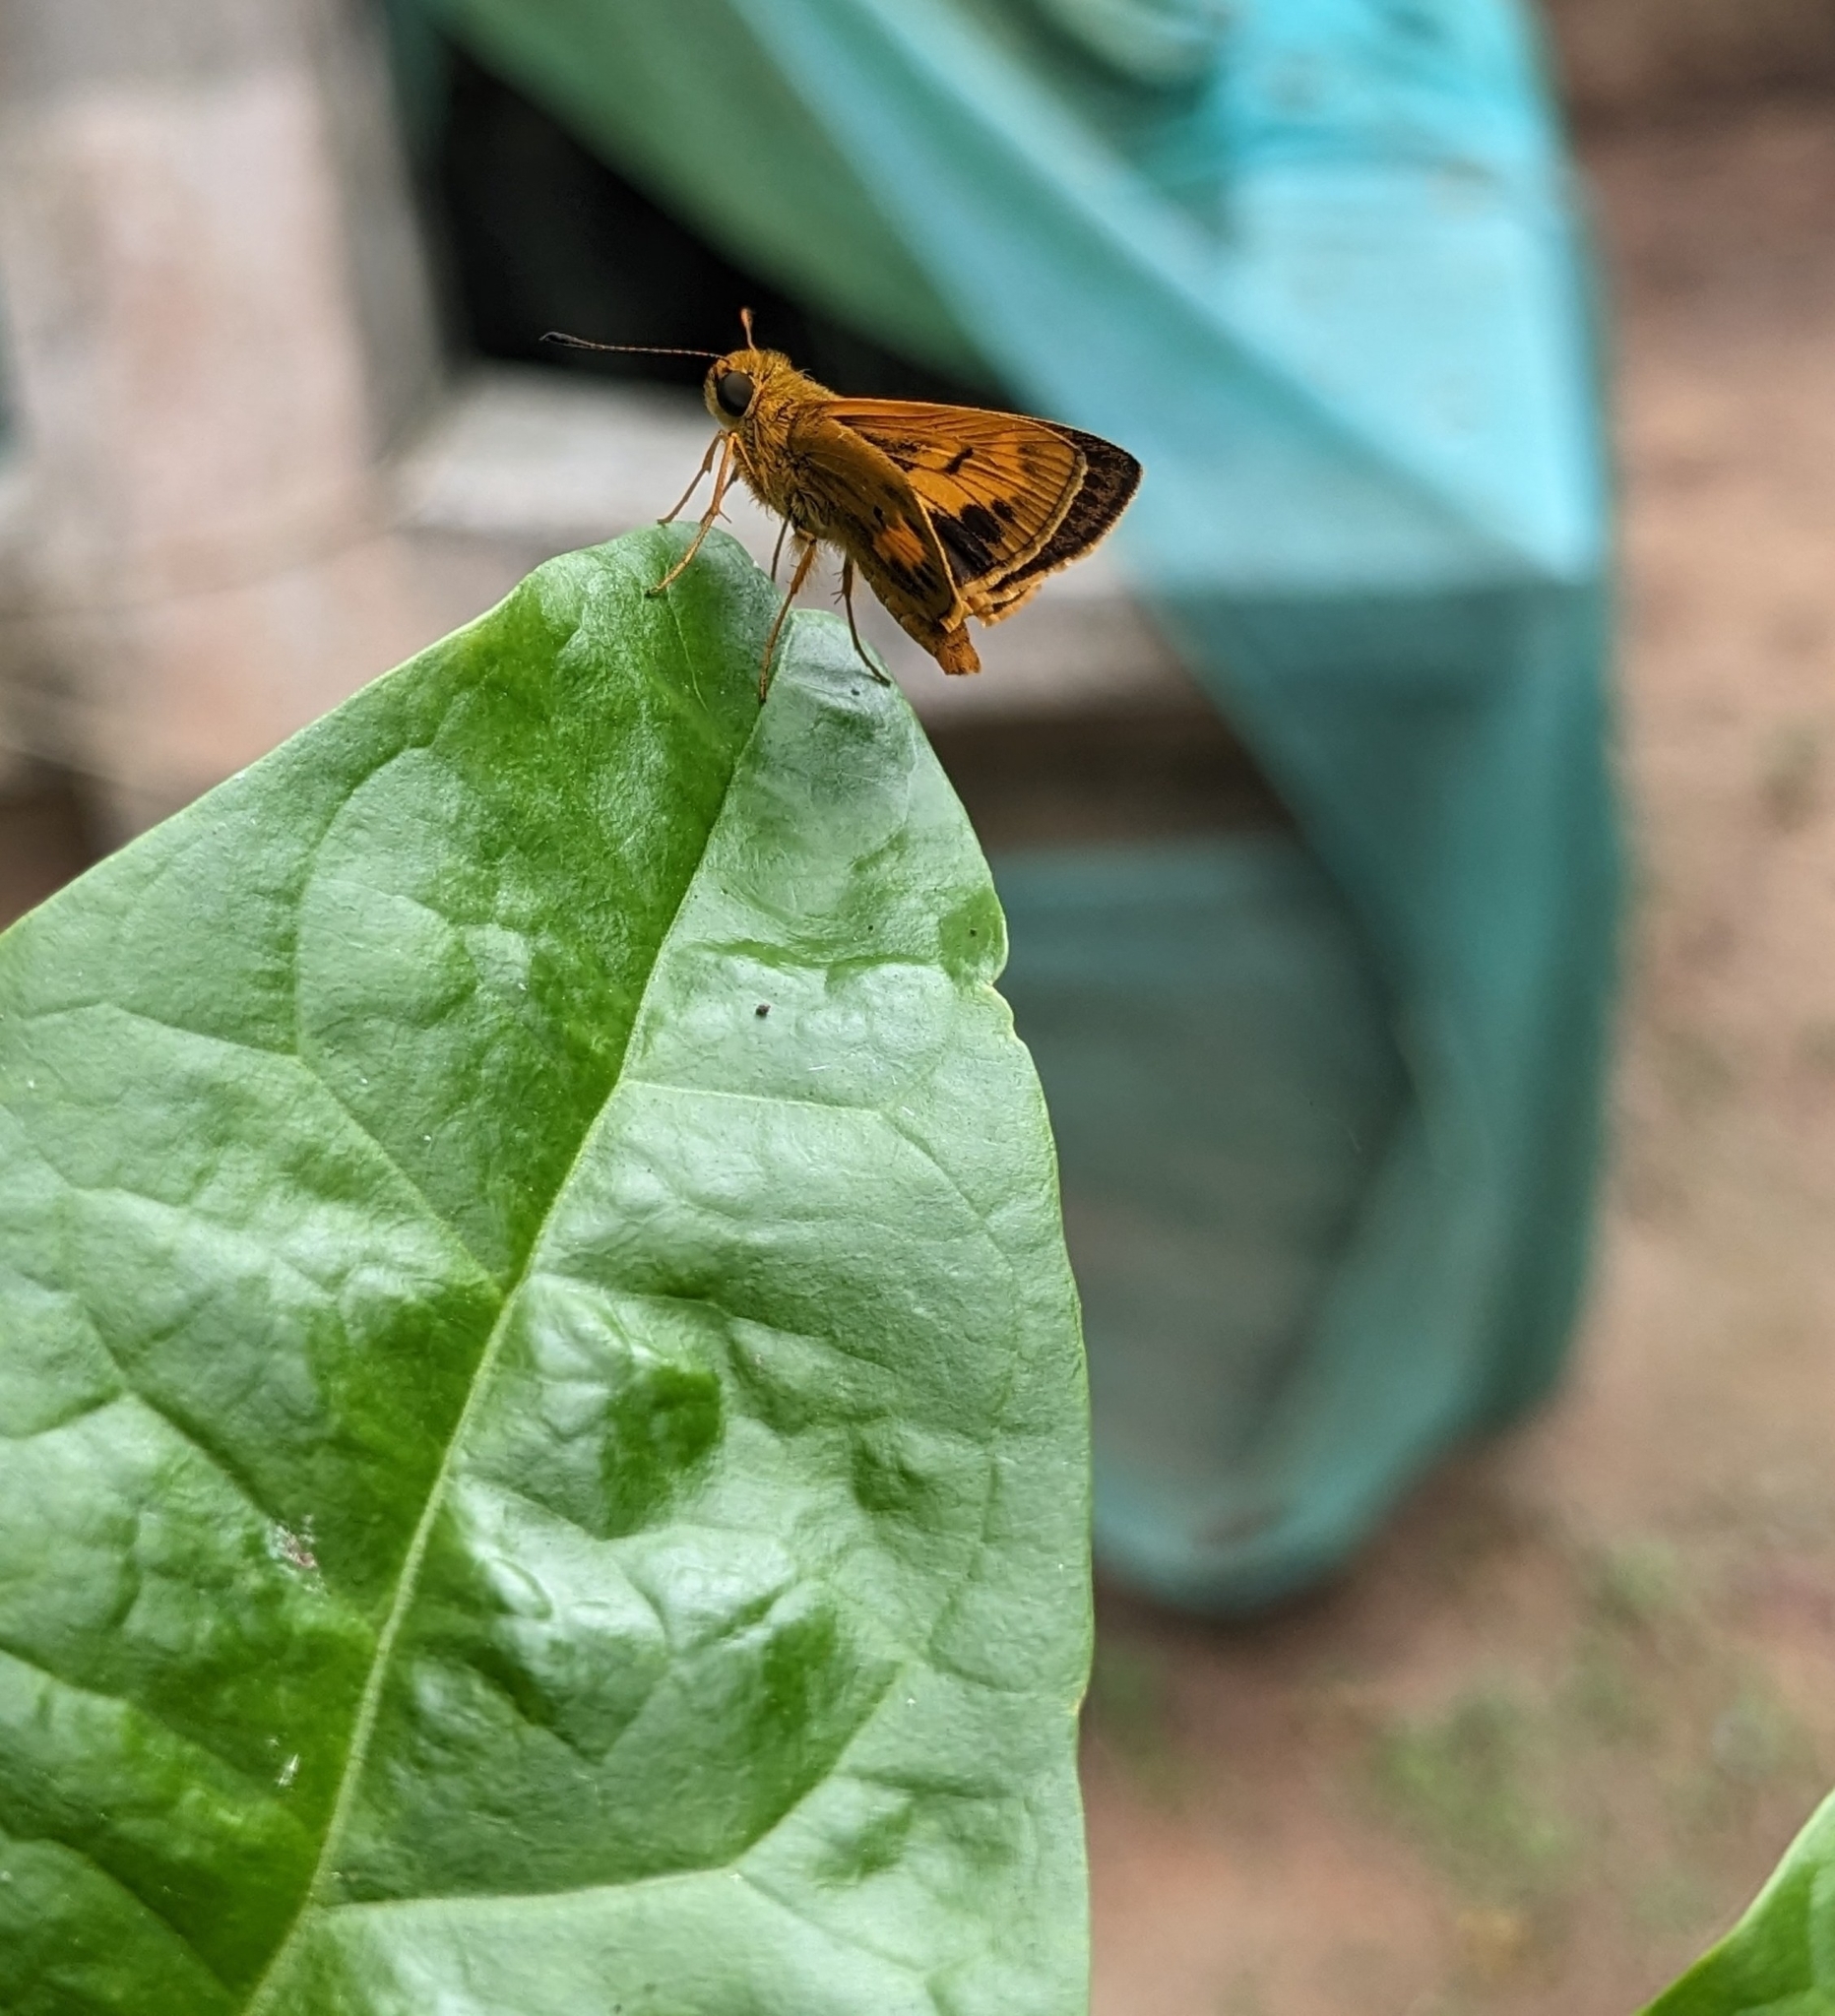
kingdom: Animalia
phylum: Arthropoda
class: Insecta
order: Lepidoptera
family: Hesperiidae
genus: Oriens
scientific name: Oriens goloides
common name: Smaller dartlet
